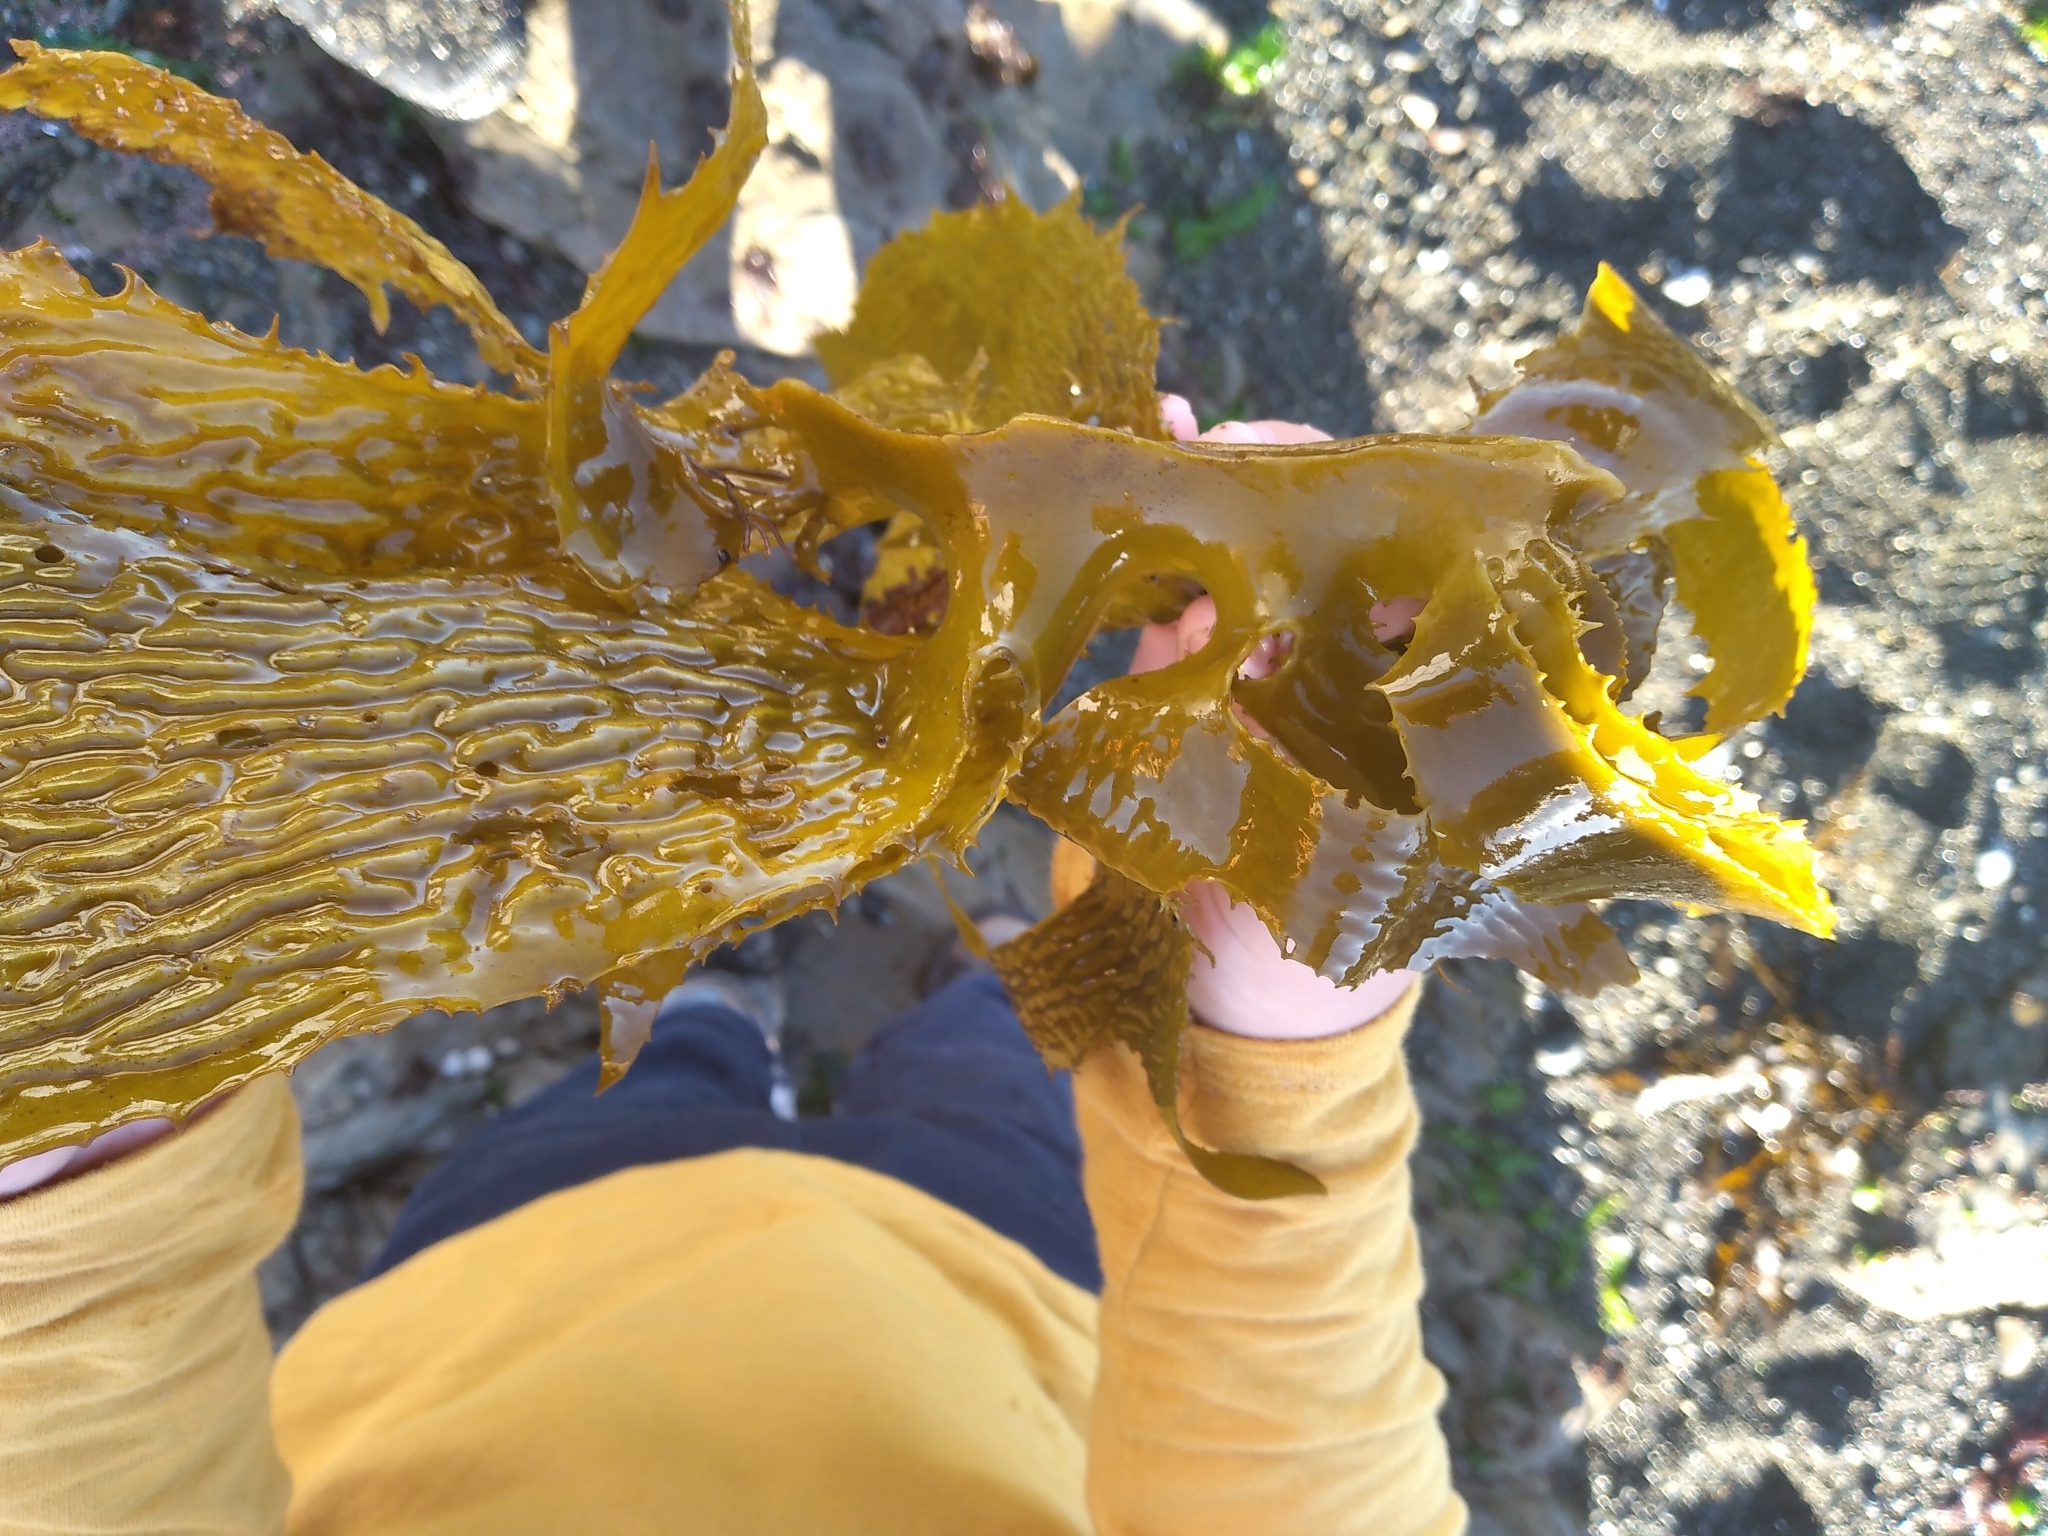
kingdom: Chromista
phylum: Ochrophyta
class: Phaeophyceae
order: Laminariales
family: Lessoniaceae
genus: Ecklonia
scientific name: Ecklonia radiata
